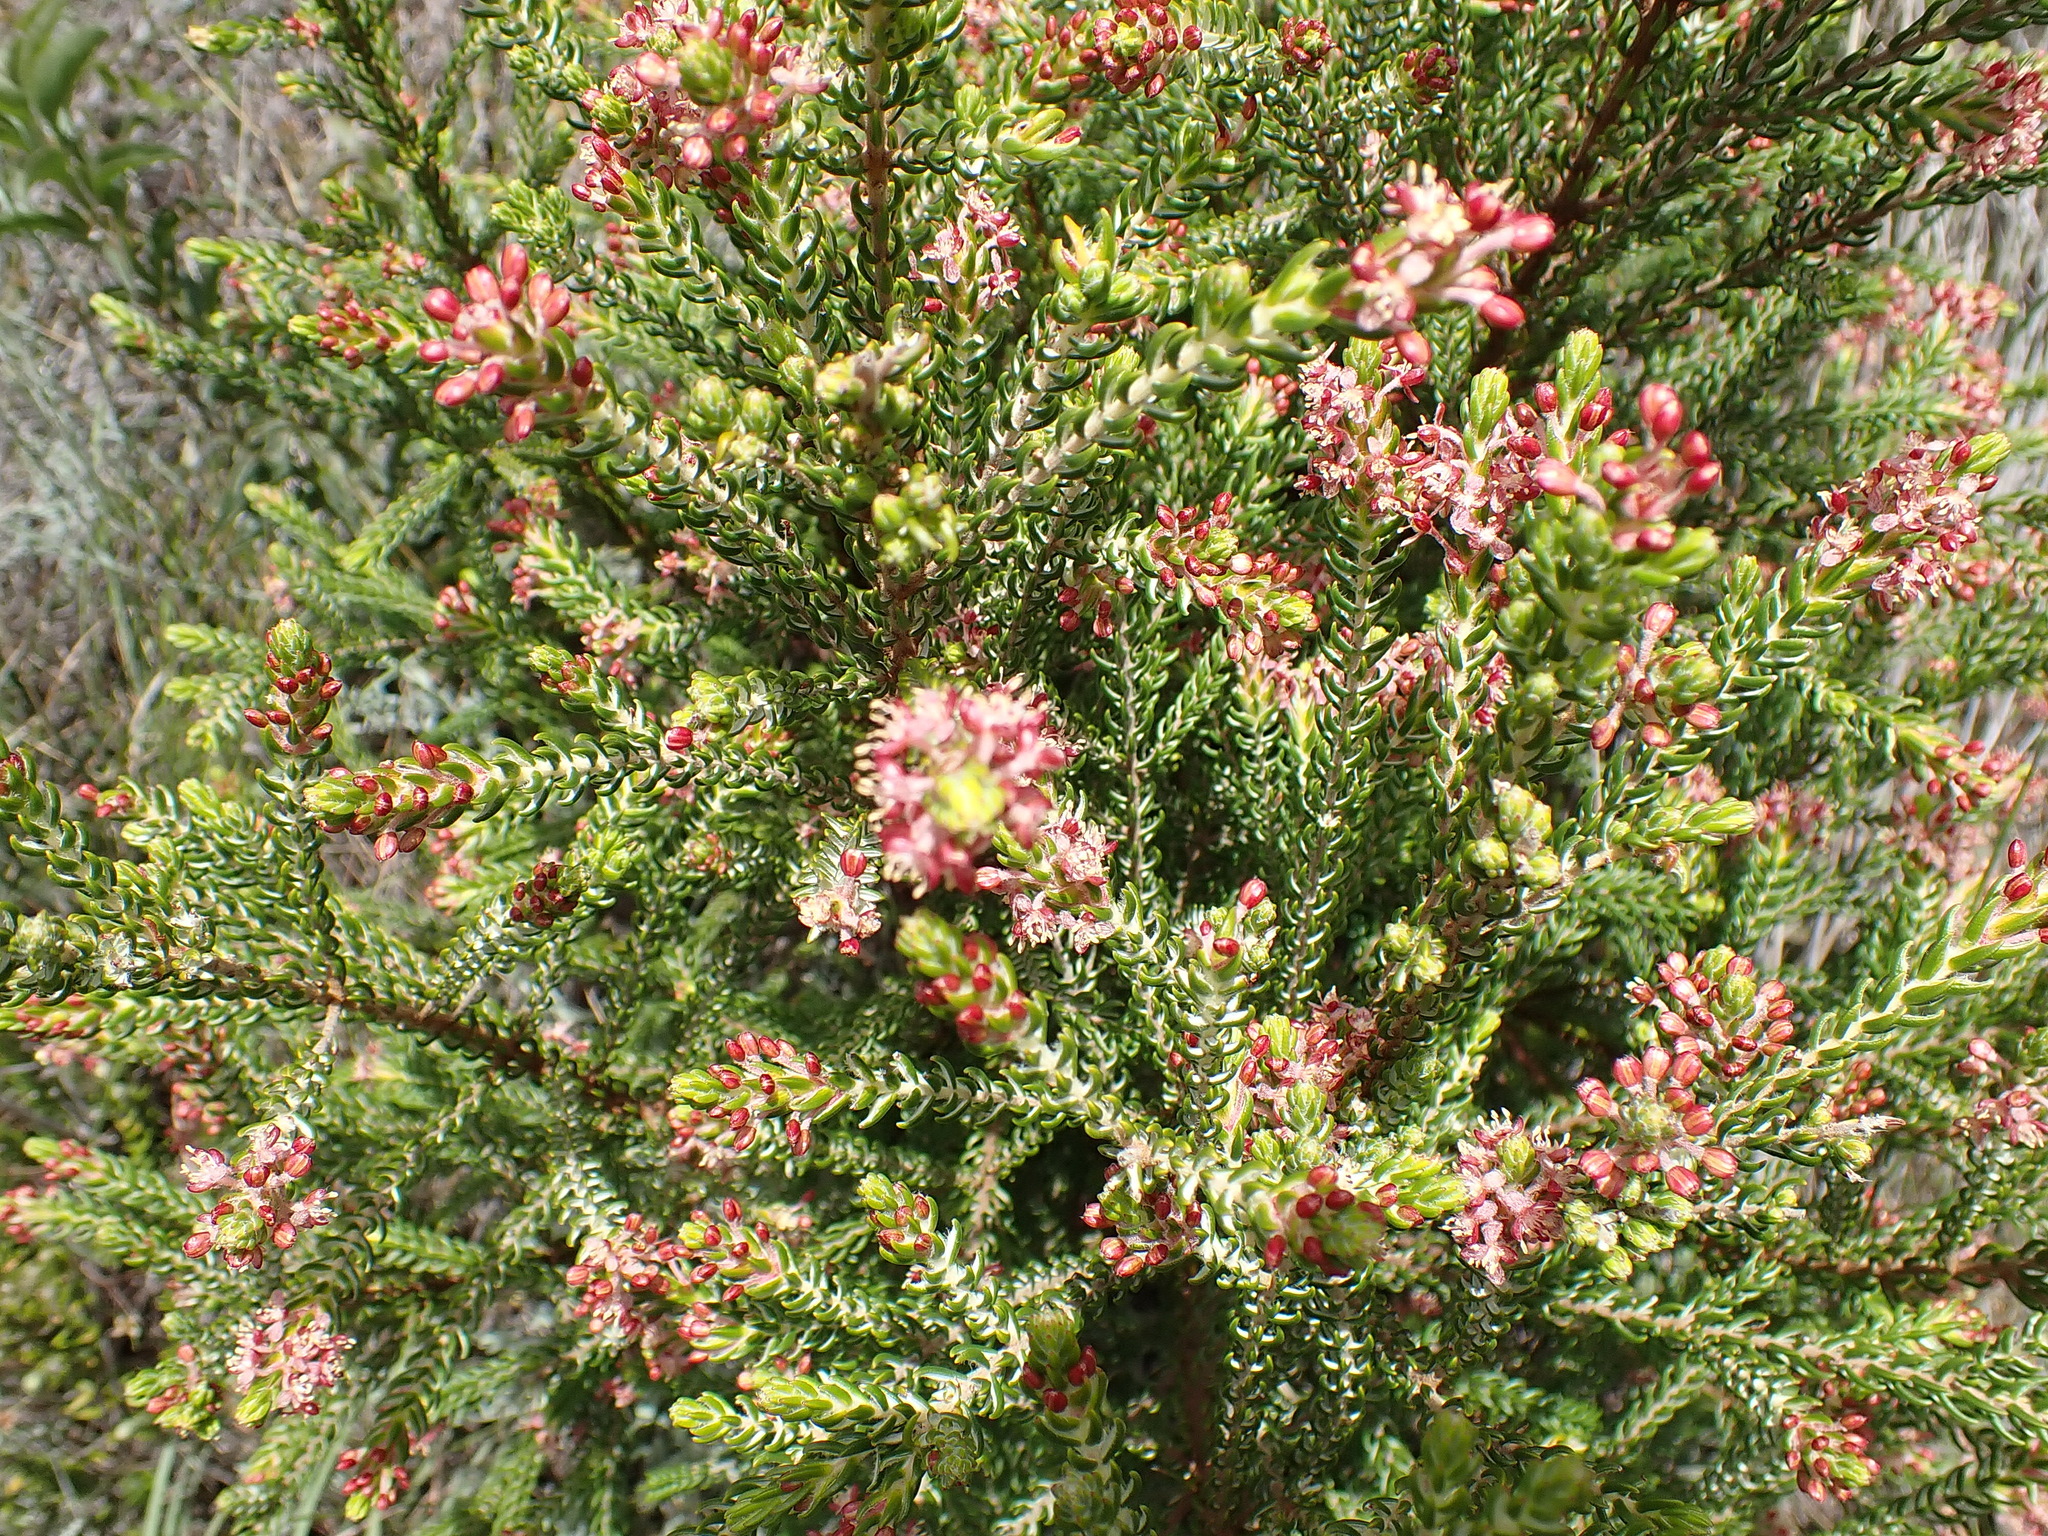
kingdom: Plantae
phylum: Tracheophyta
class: Magnoliopsida
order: Malvales
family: Thymelaeaceae
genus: Passerina
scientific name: Passerina obtusifolia
